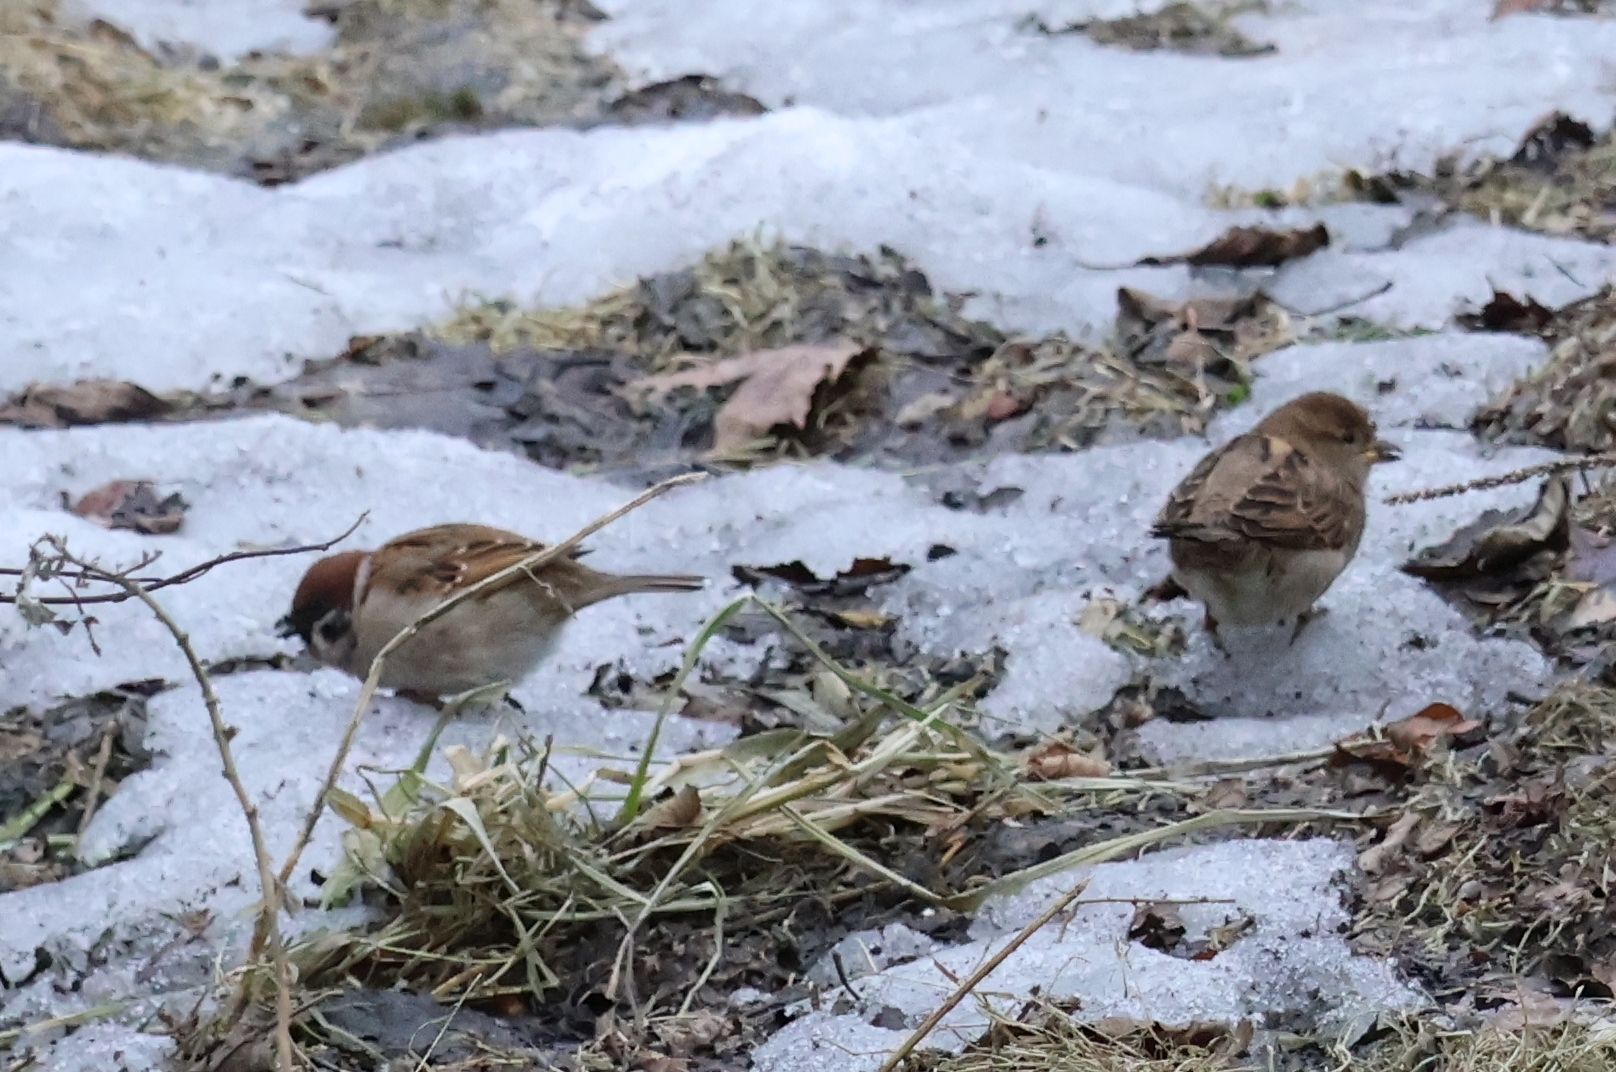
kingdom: Animalia
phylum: Chordata
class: Aves
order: Passeriformes
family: Passeridae
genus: Passer
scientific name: Passer domesticus
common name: House sparrow
